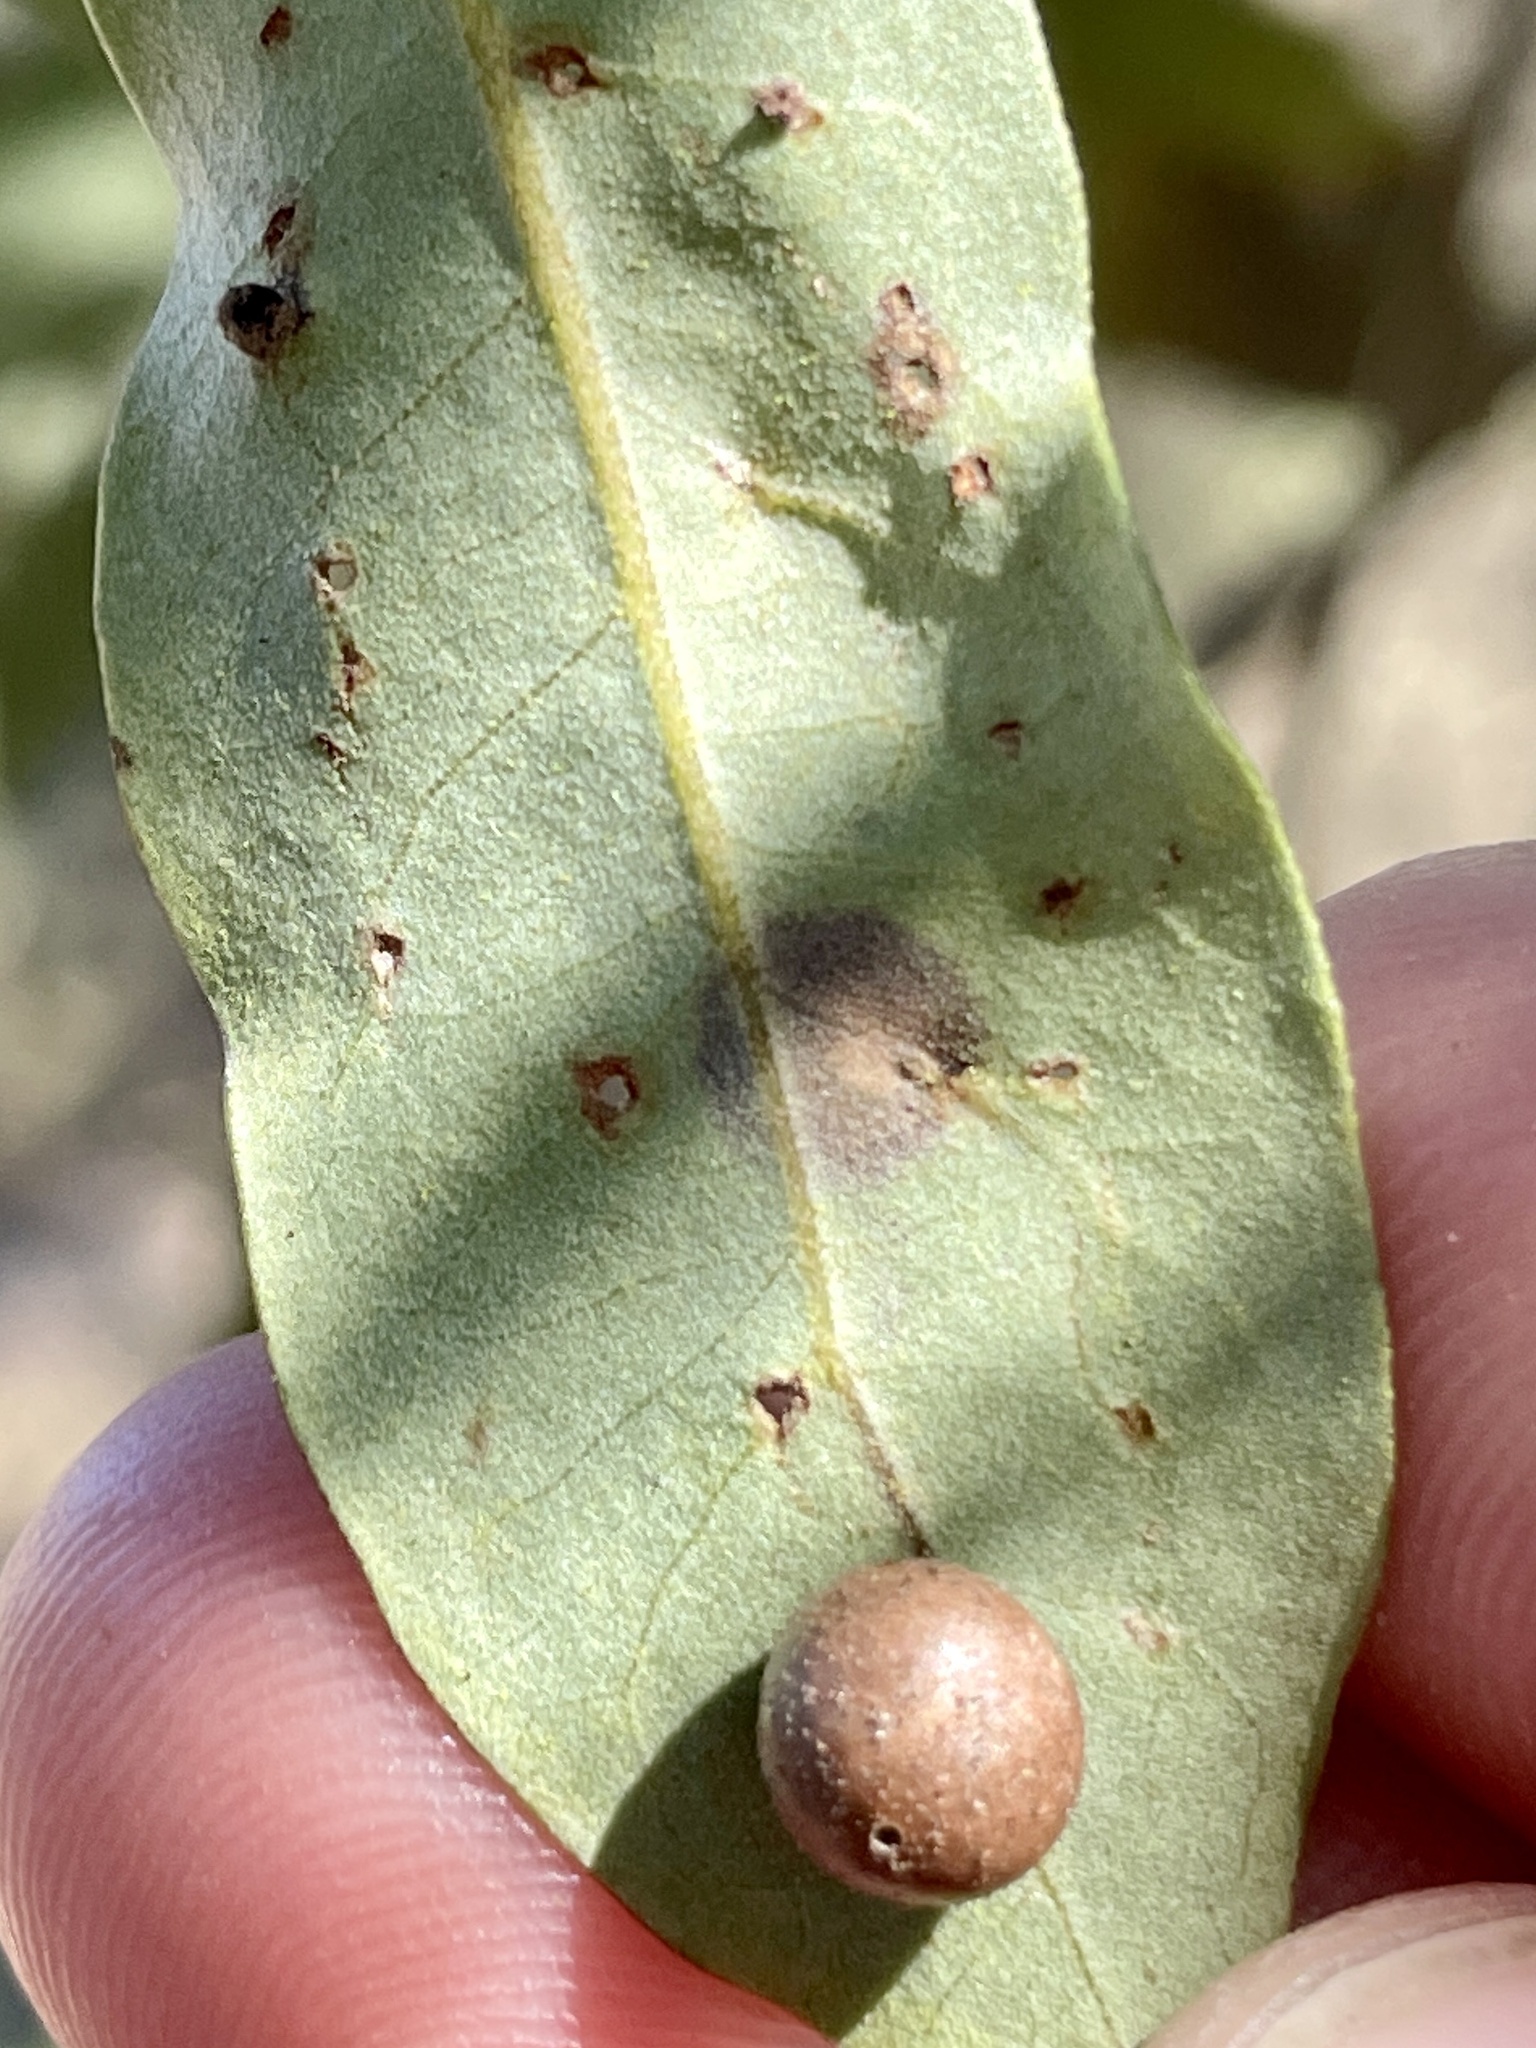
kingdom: Fungi
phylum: Ascomycota
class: Sordariomycetes
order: Phyllachorales
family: Phyllachoraceae
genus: Trabutia
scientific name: Trabutia quercina
